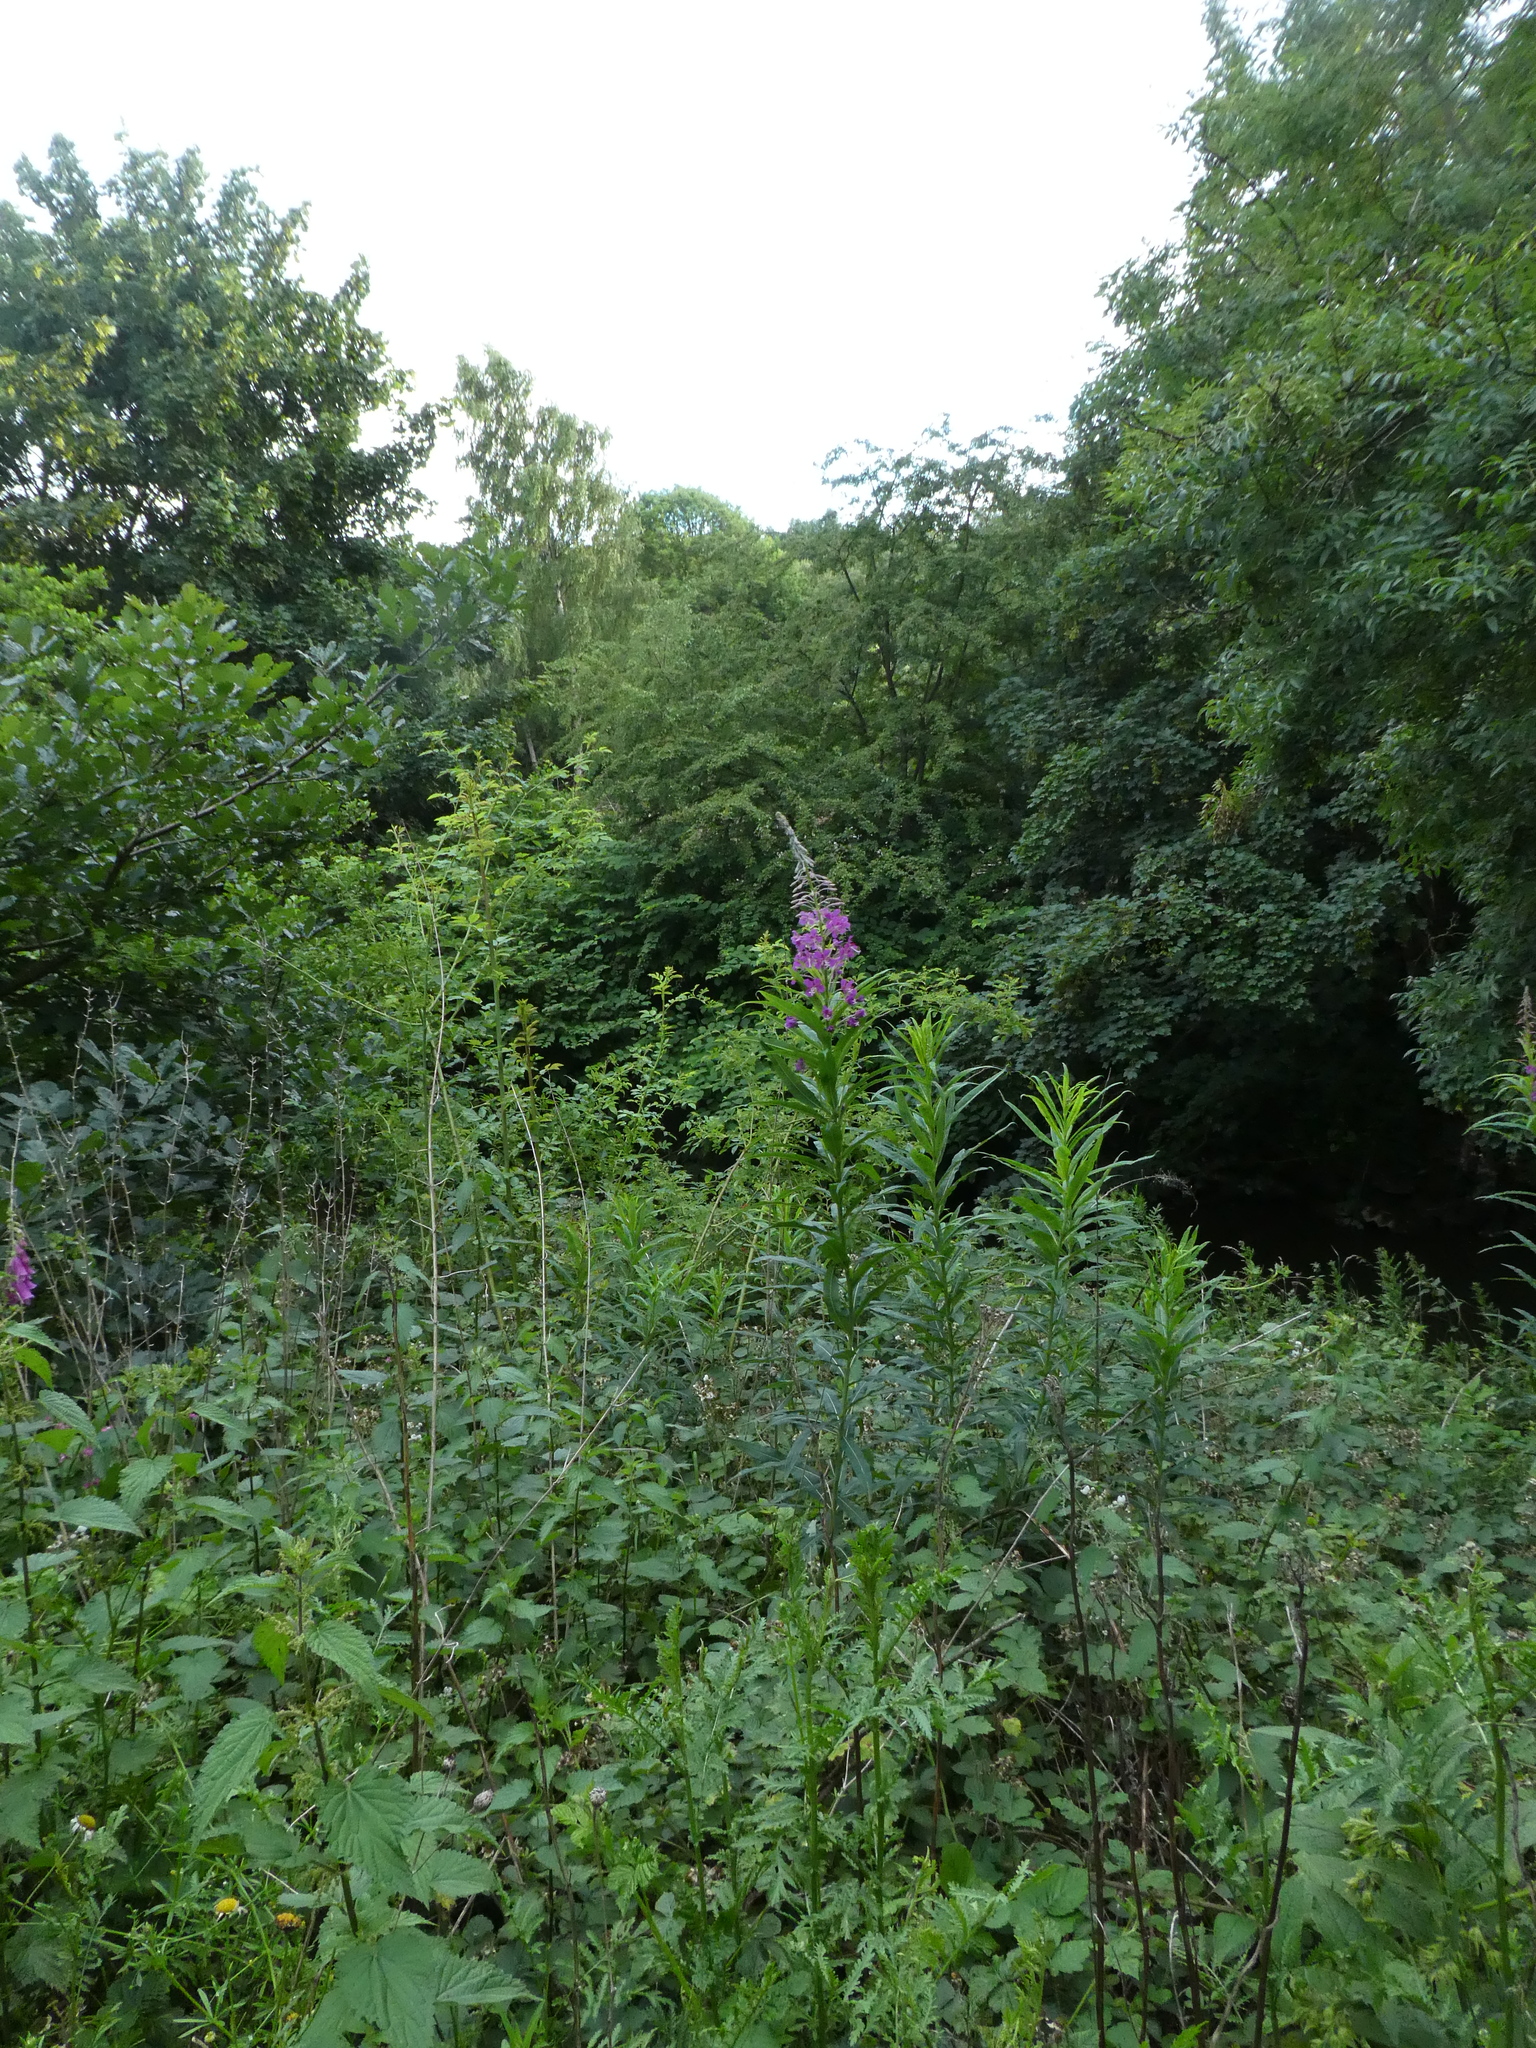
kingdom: Plantae
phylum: Tracheophyta
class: Magnoliopsida
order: Myrtales
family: Onagraceae
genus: Chamaenerion
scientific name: Chamaenerion angustifolium
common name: Fireweed
